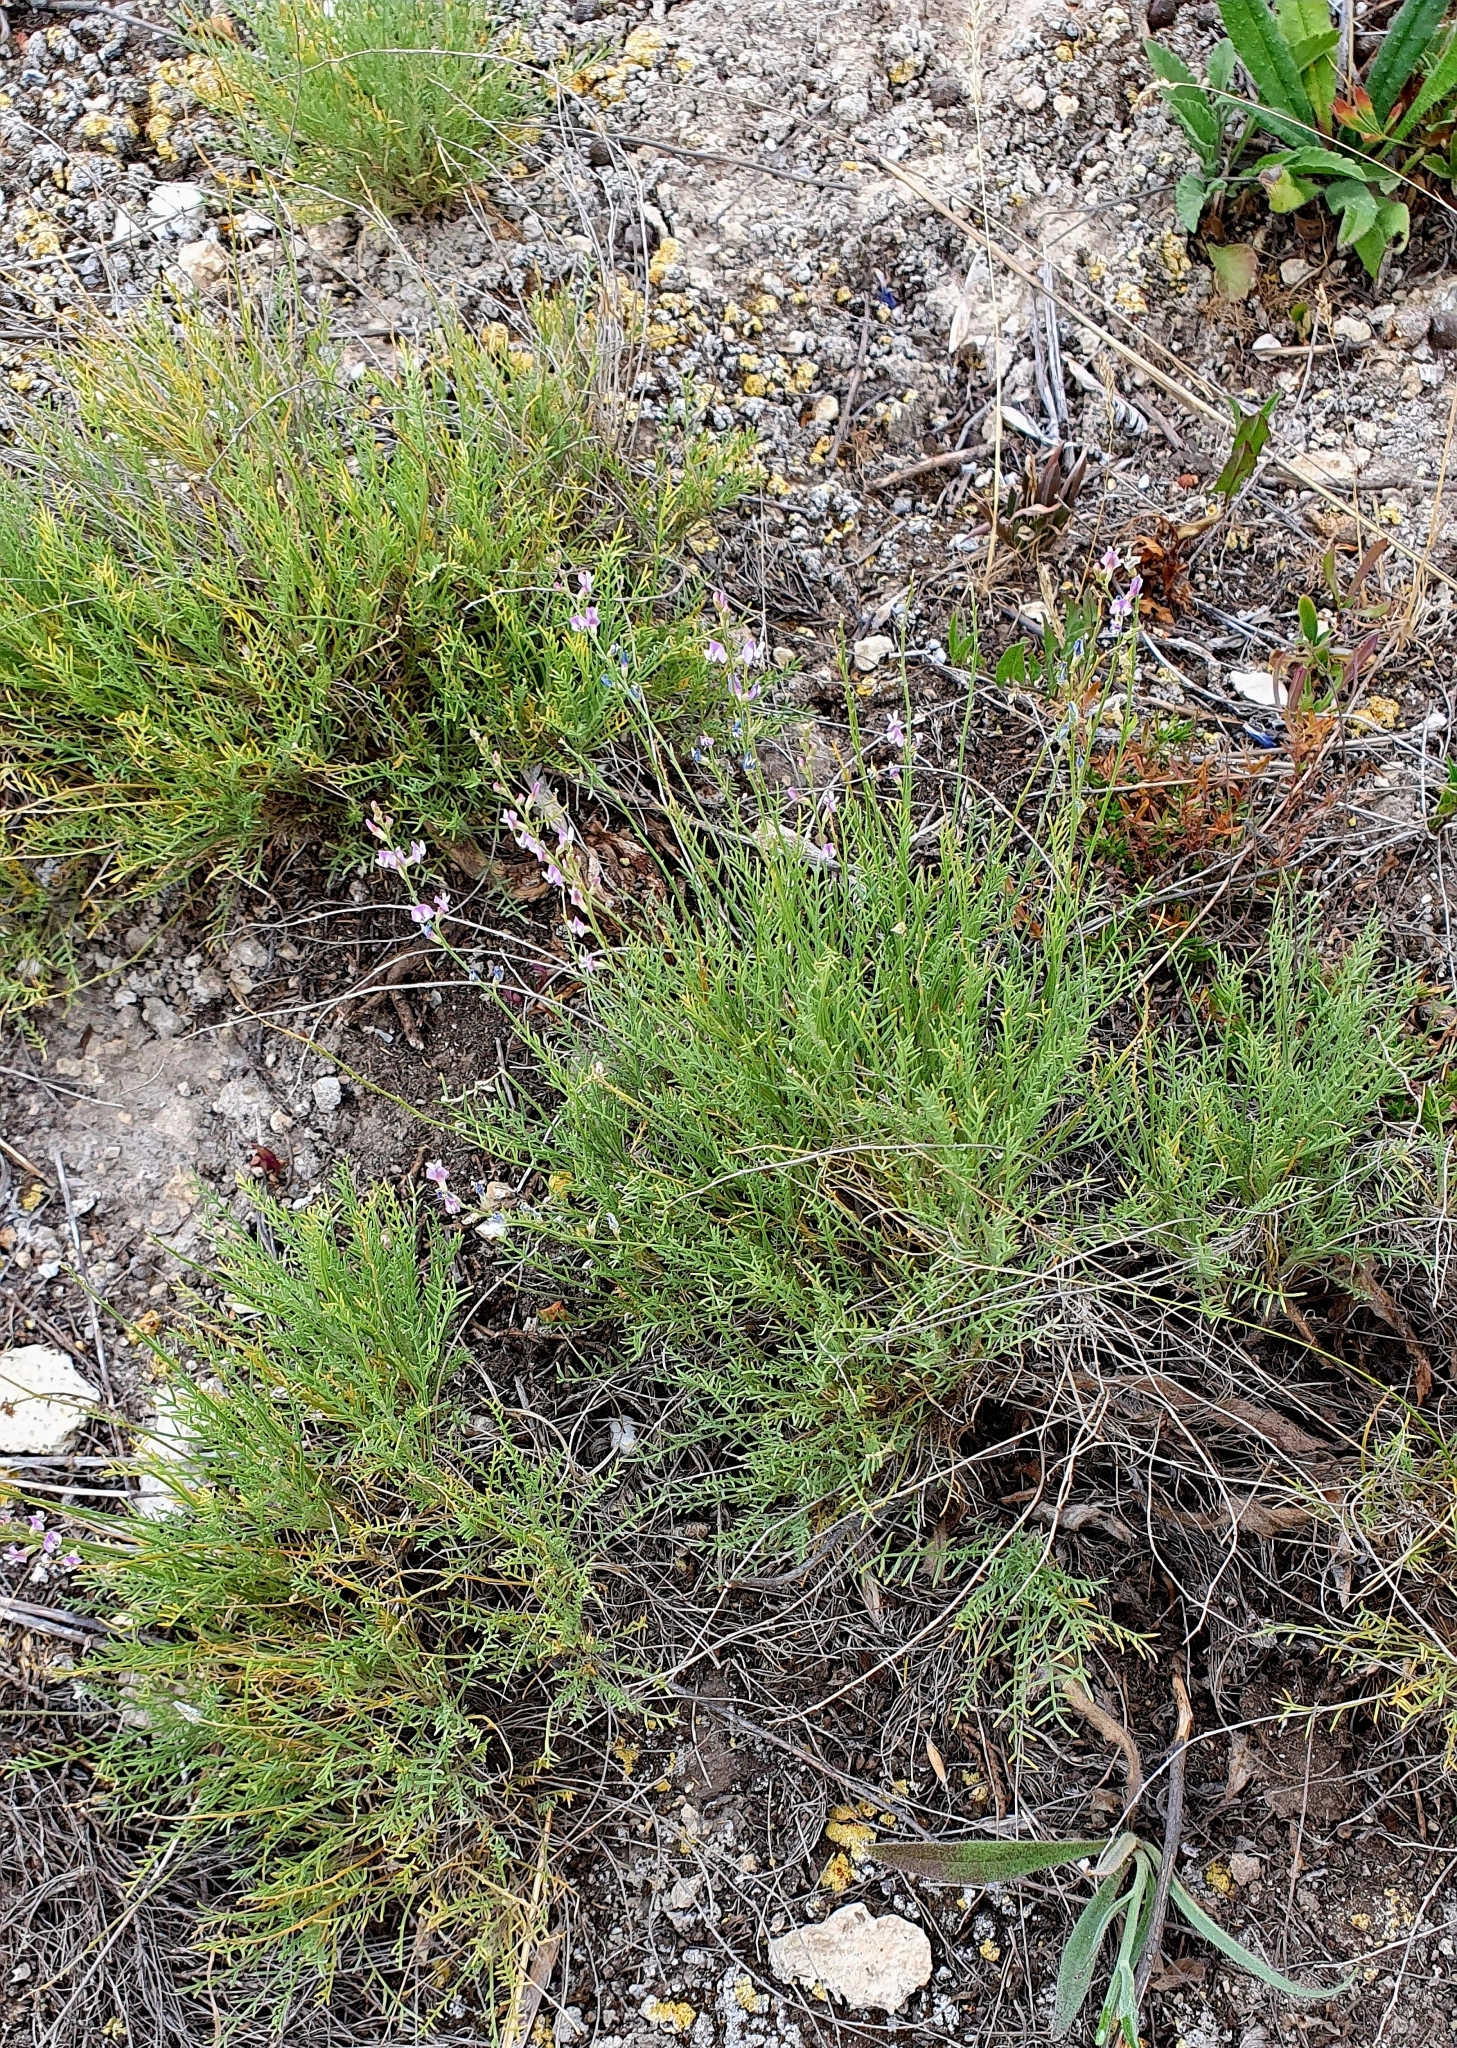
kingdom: Plantae
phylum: Tracheophyta
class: Magnoliopsida
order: Fabales
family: Fabaceae
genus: Astragalus
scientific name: Astragalus
